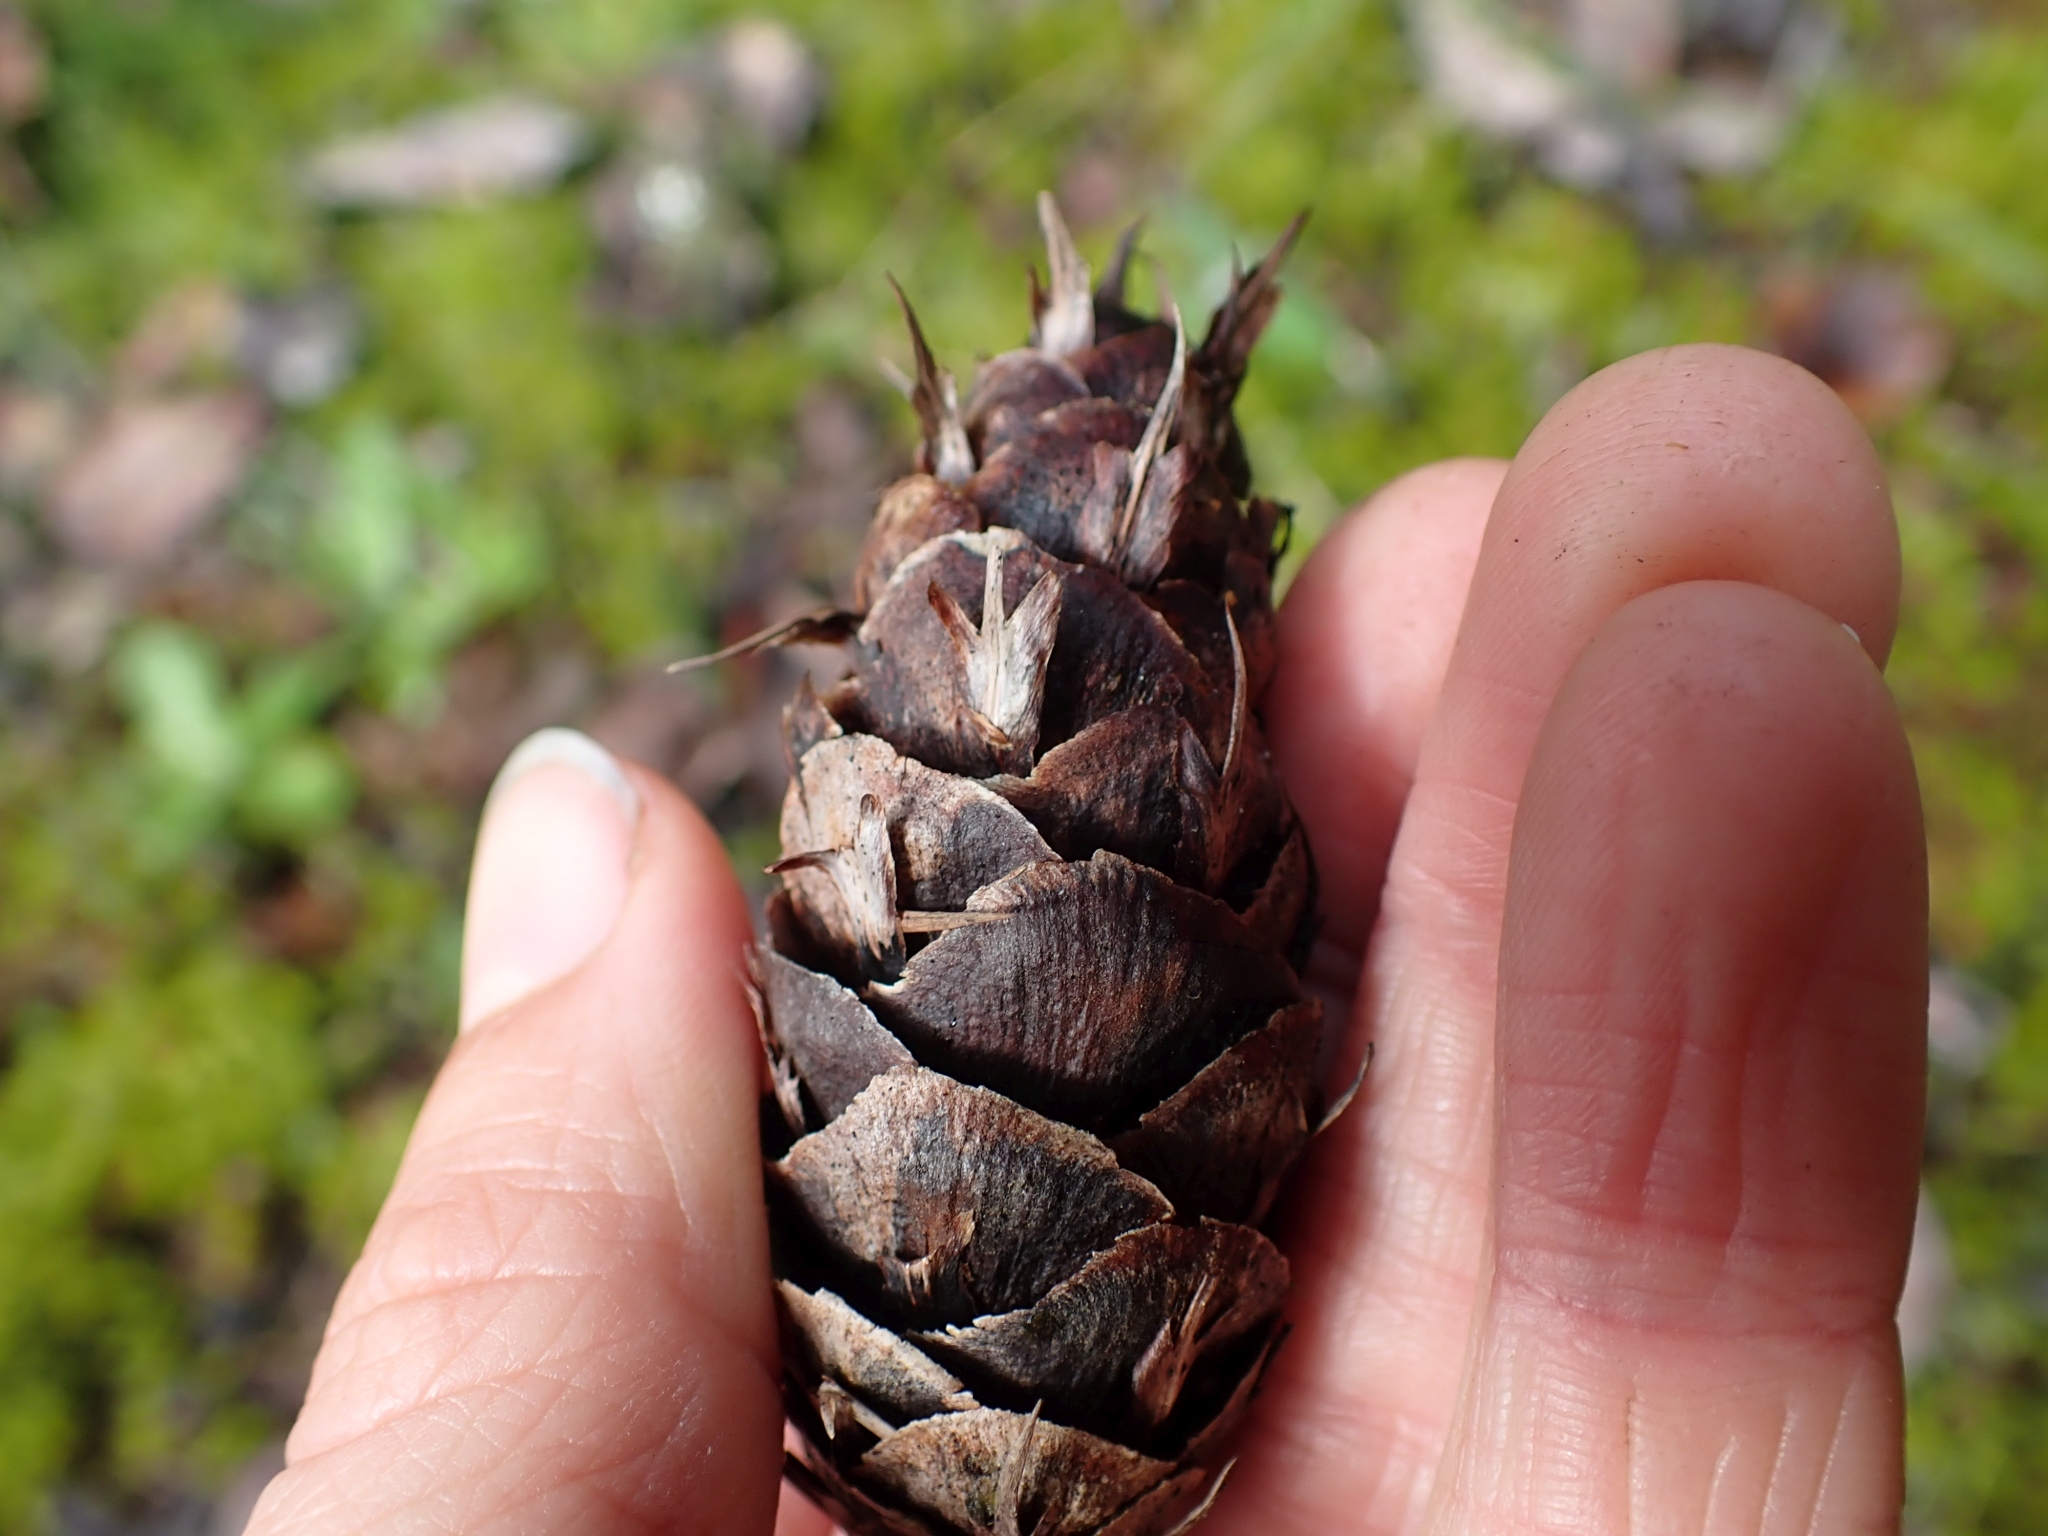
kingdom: Plantae
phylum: Tracheophyta
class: Pinopsida
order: Pinales
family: Pinaceae
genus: Pseudotsuga
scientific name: Pseudotsuga menziesii
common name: Douglas fir
